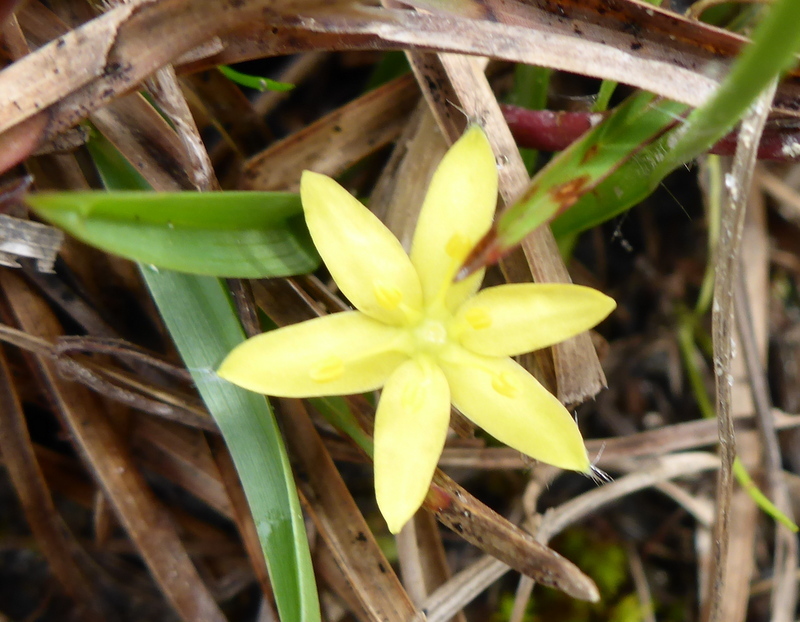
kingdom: Plantae
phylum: Tracheophyta
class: Liliopsida
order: Asparagales
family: Hypoxidaceae
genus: Hypoxis
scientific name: Hypoxis juncea
